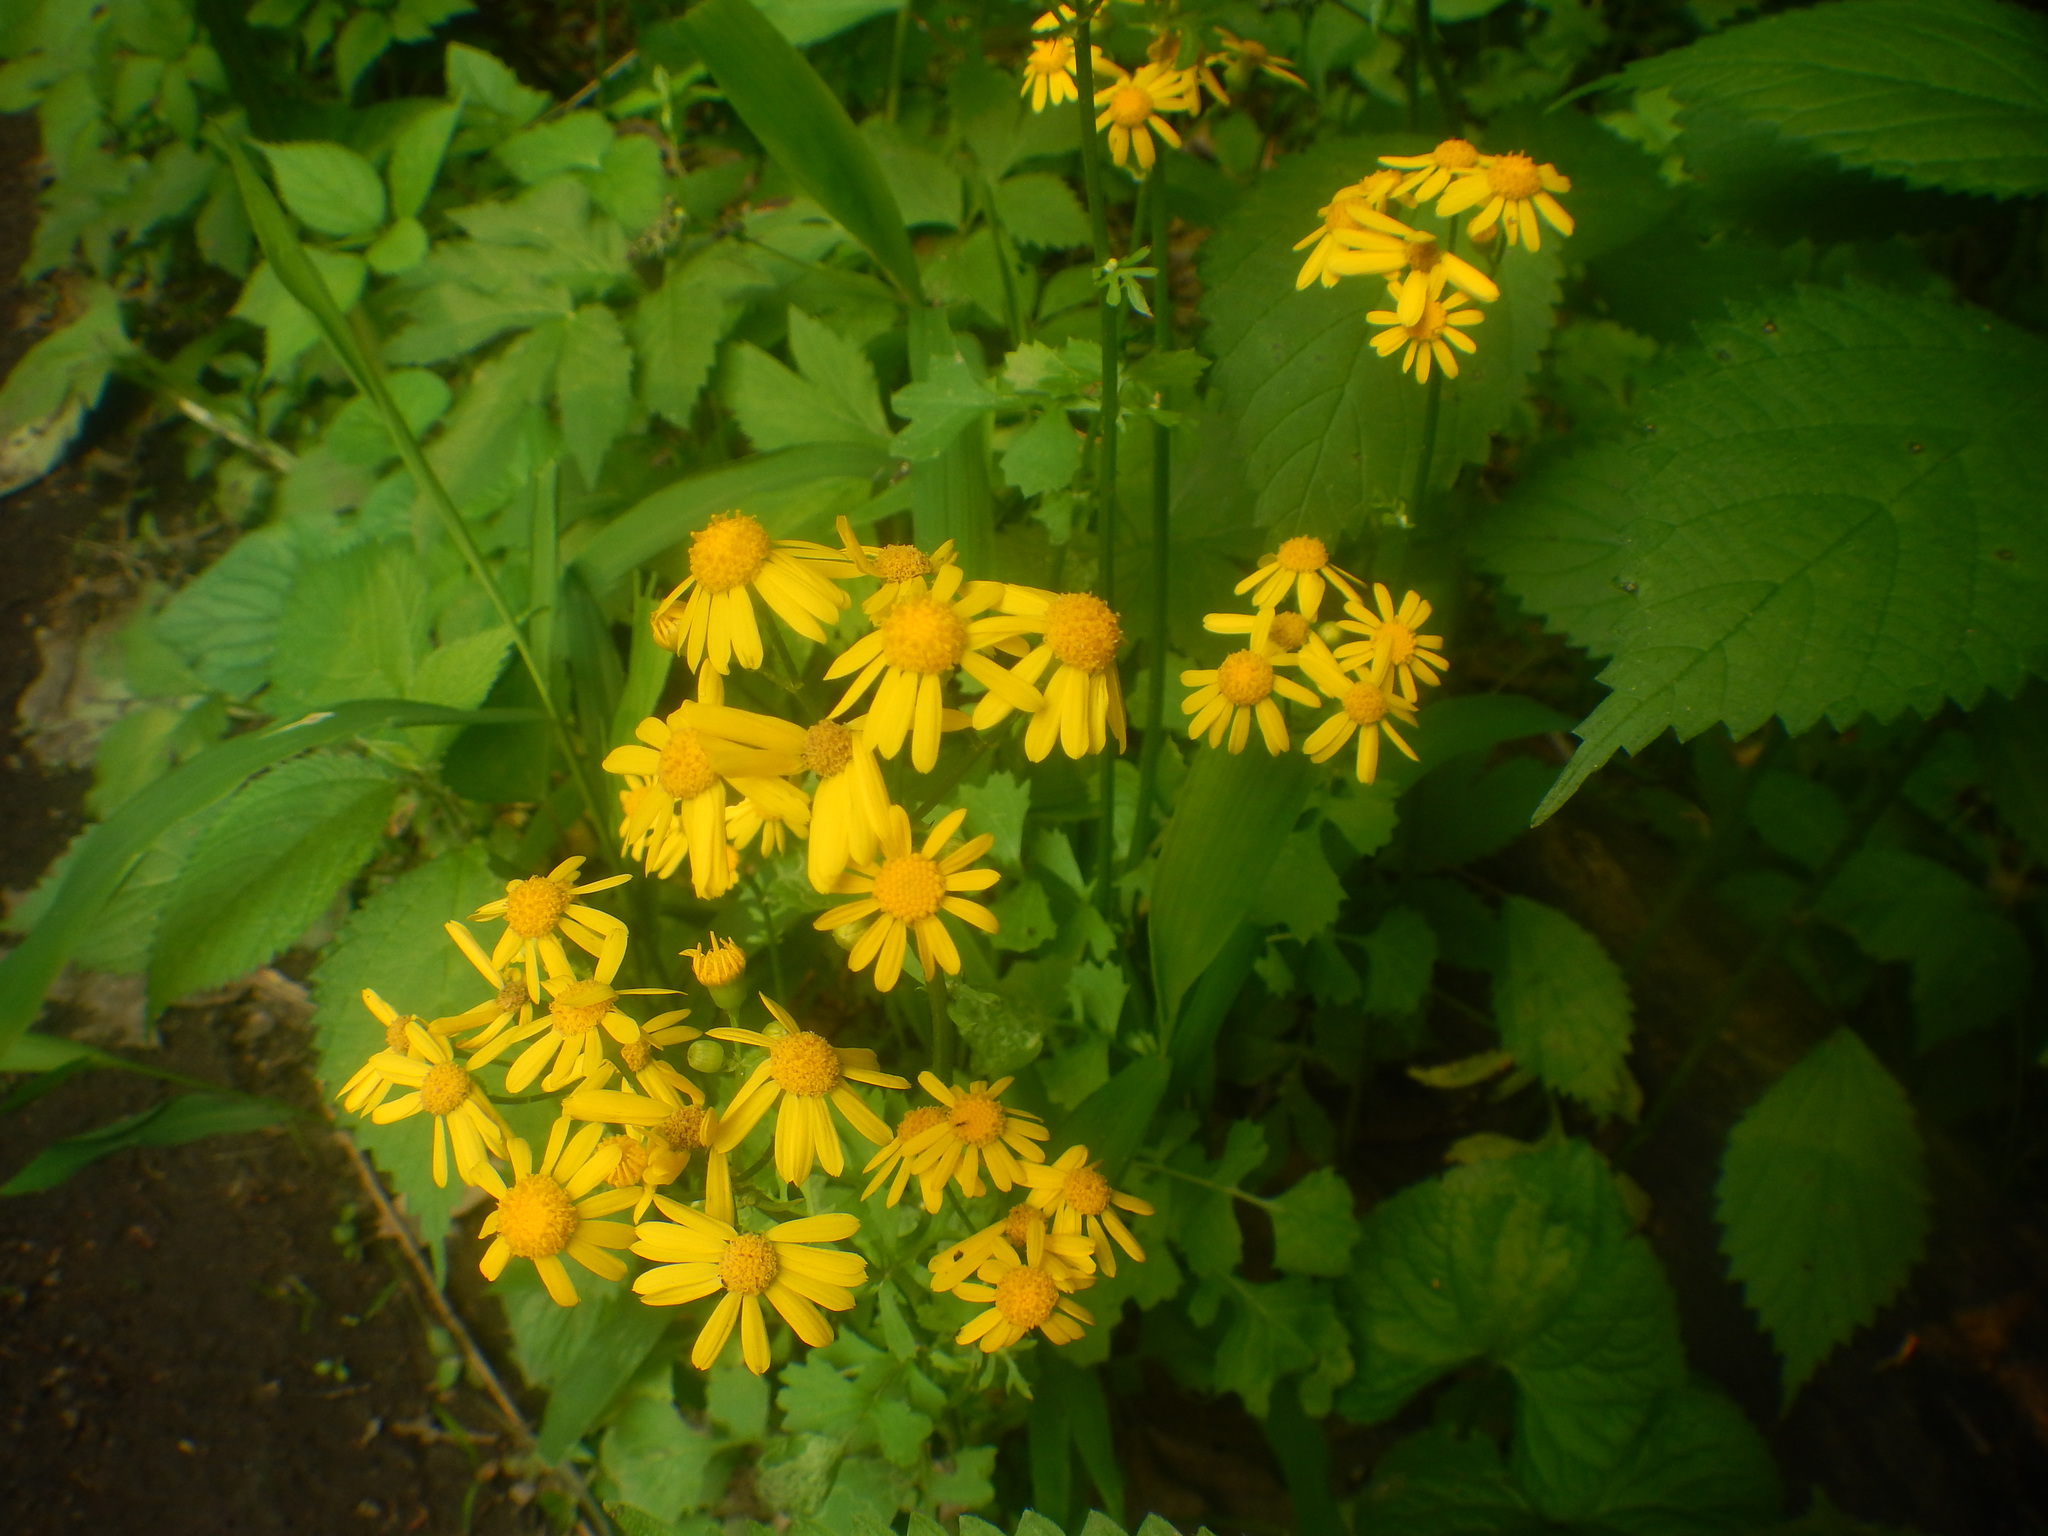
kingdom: Plantae
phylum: Tracheophyta
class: Magnoliopsida
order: Asterales
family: Asteraceae
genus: Packera
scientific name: Packera aurea
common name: Golden groundsel
